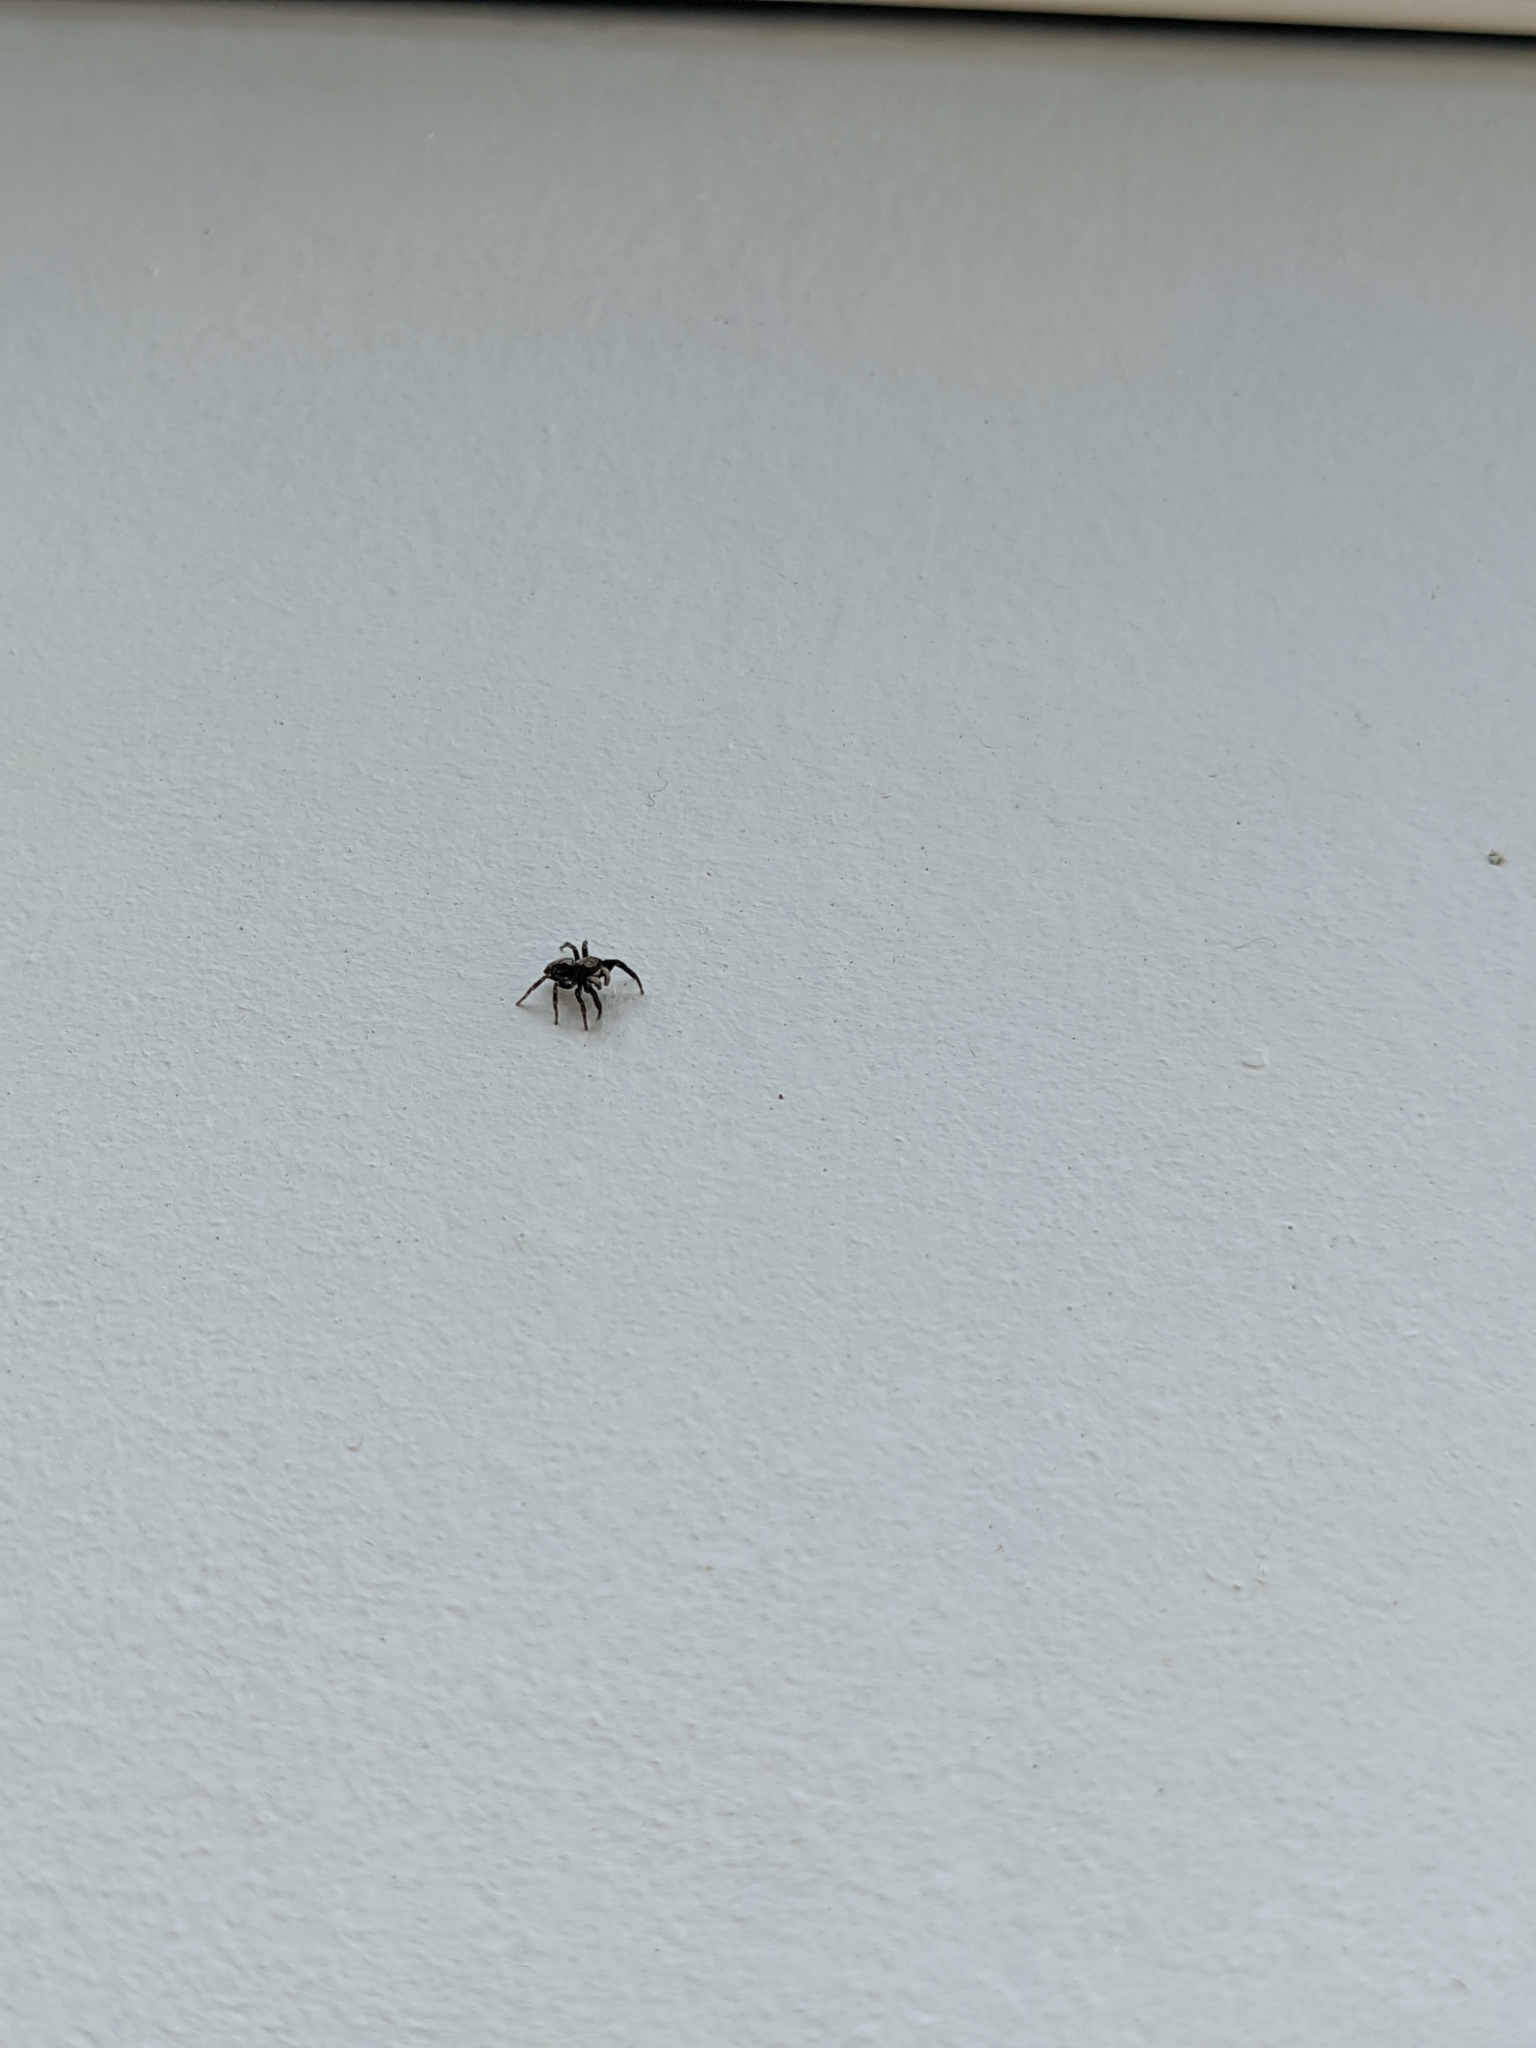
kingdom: Animalia
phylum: Arthropoda
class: Arachnida
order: Araneae
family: Salticidae
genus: Pseudeuophrys
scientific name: Pseudeuophrys lanigera
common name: Jumping spider
